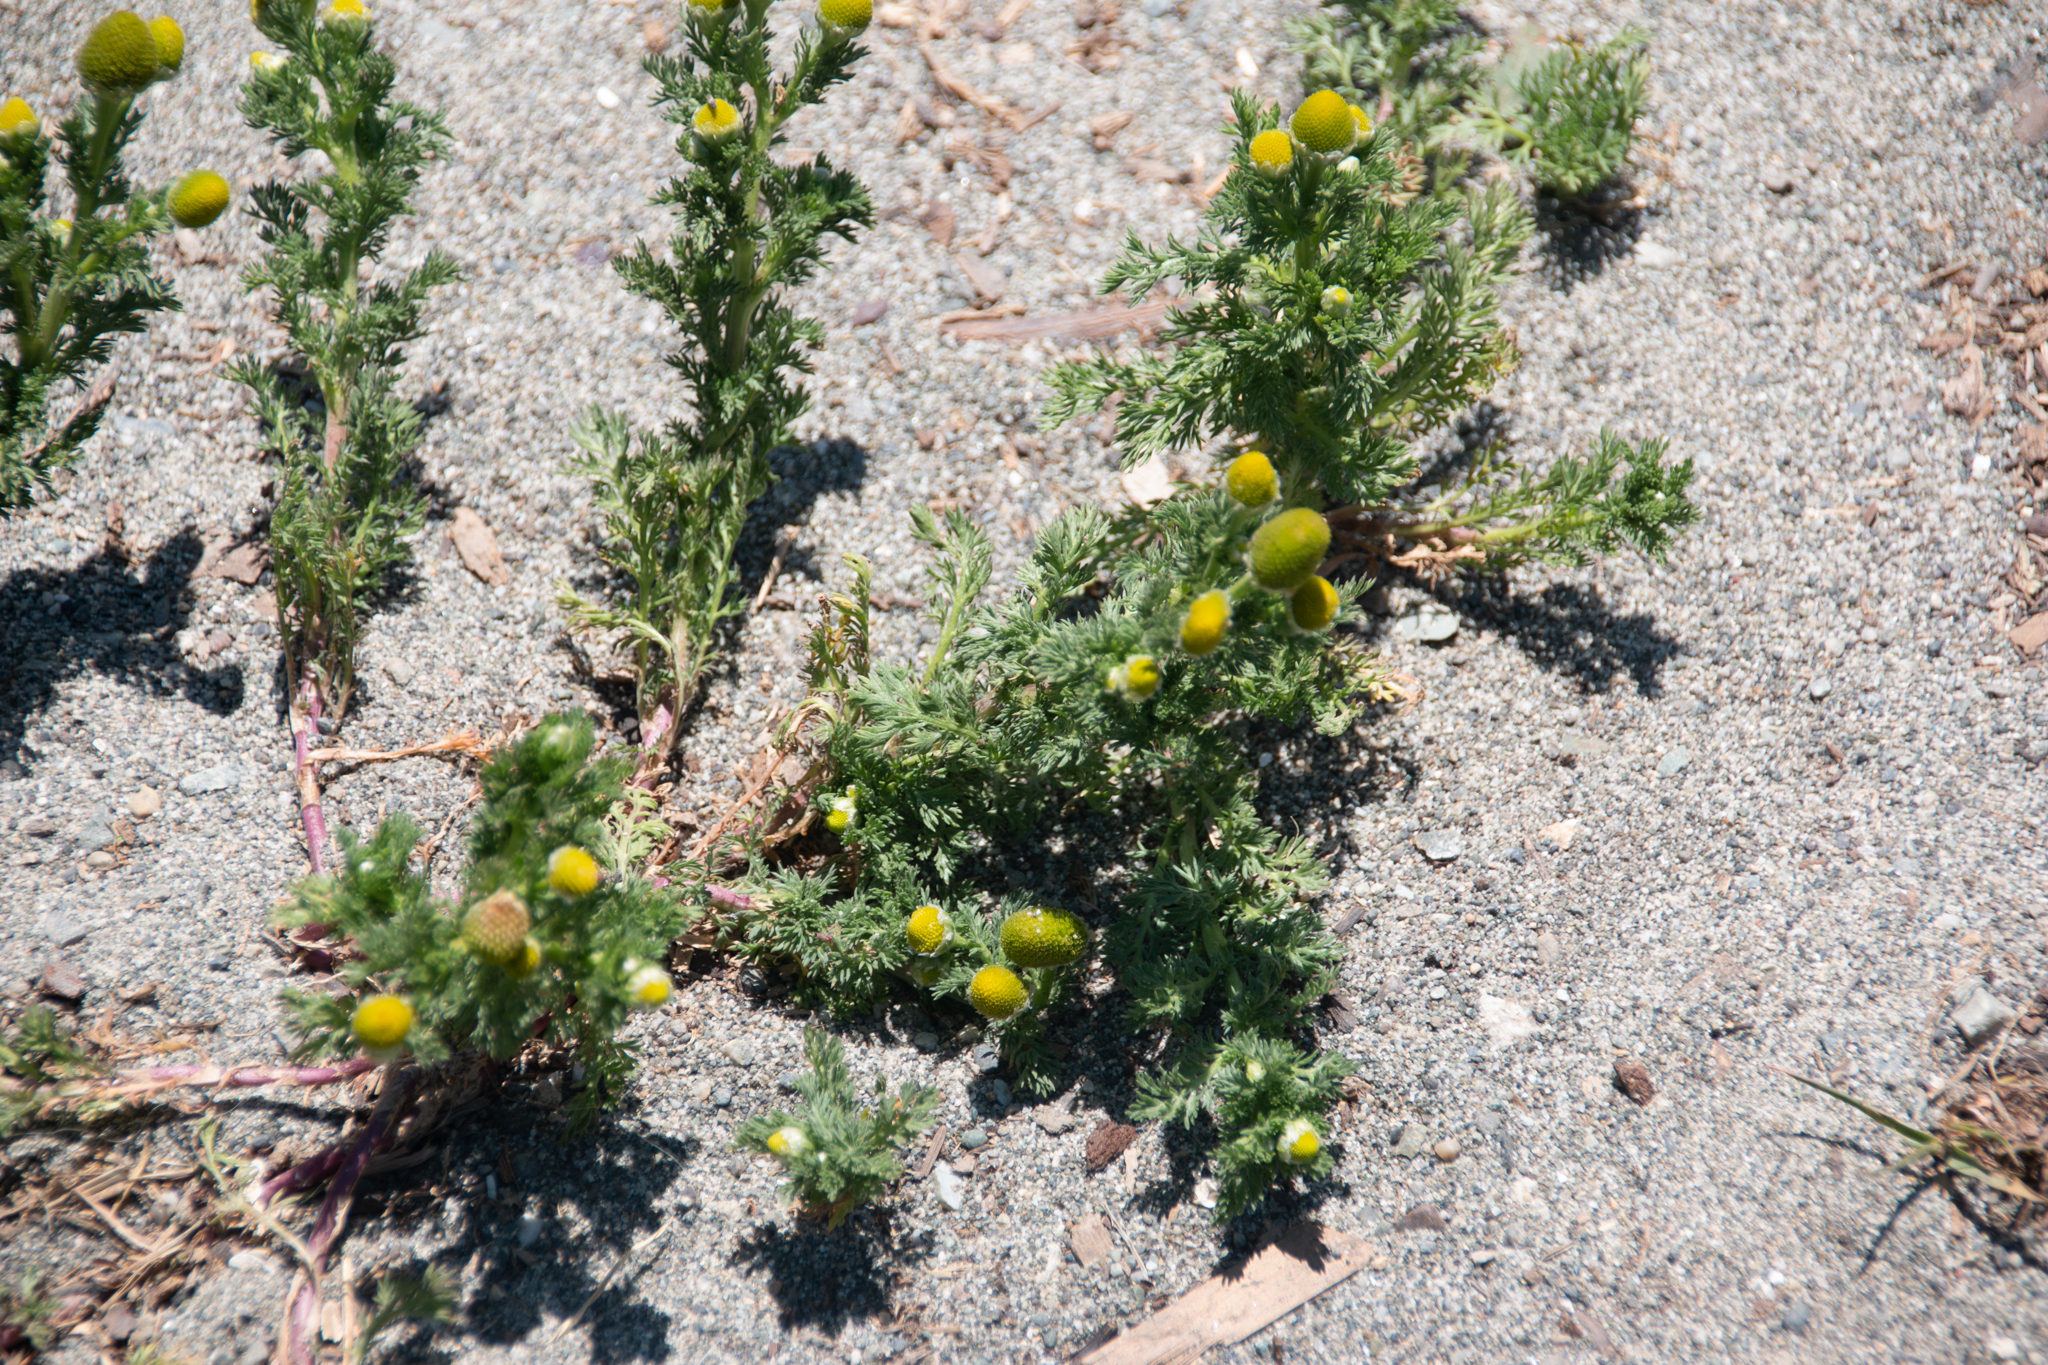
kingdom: Plantae
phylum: Tracheophyta
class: Magnoliopsida
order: Asterales
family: Asteraceae
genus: Matricaria
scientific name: Matricaria discoidea
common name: Disc mayweed
